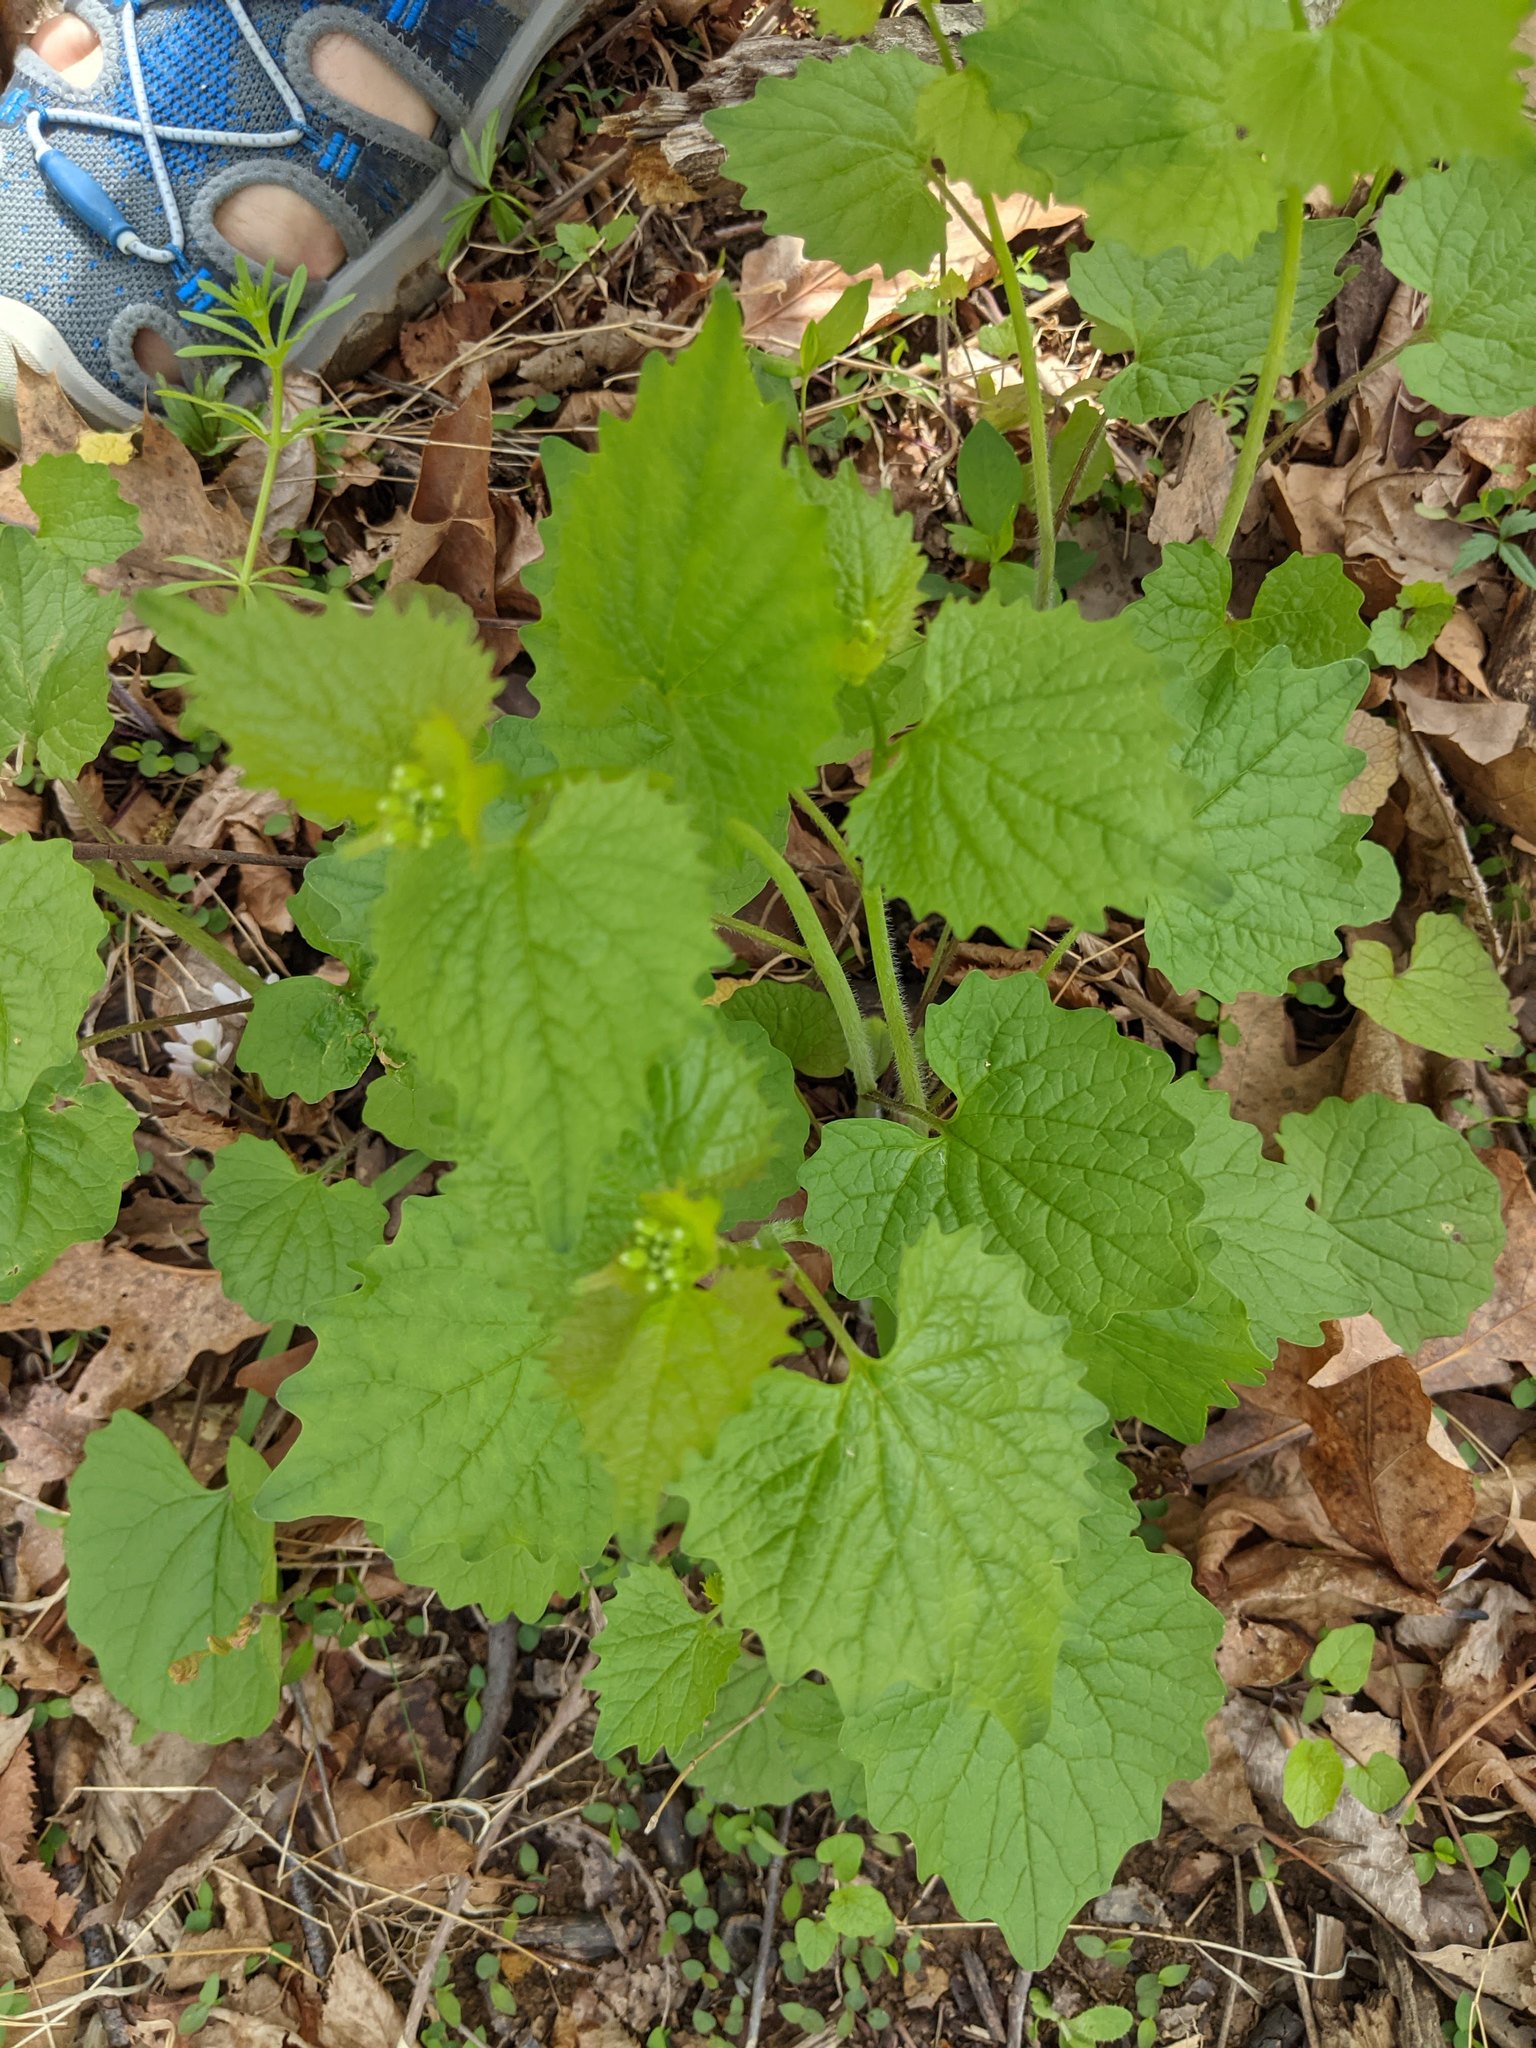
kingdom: Plantae
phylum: Tracheophyta
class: Magnoliopsida
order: Brassicales
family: Brassicaceae
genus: Alliaria
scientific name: Alliaria petiolata
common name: Garlic mustard
